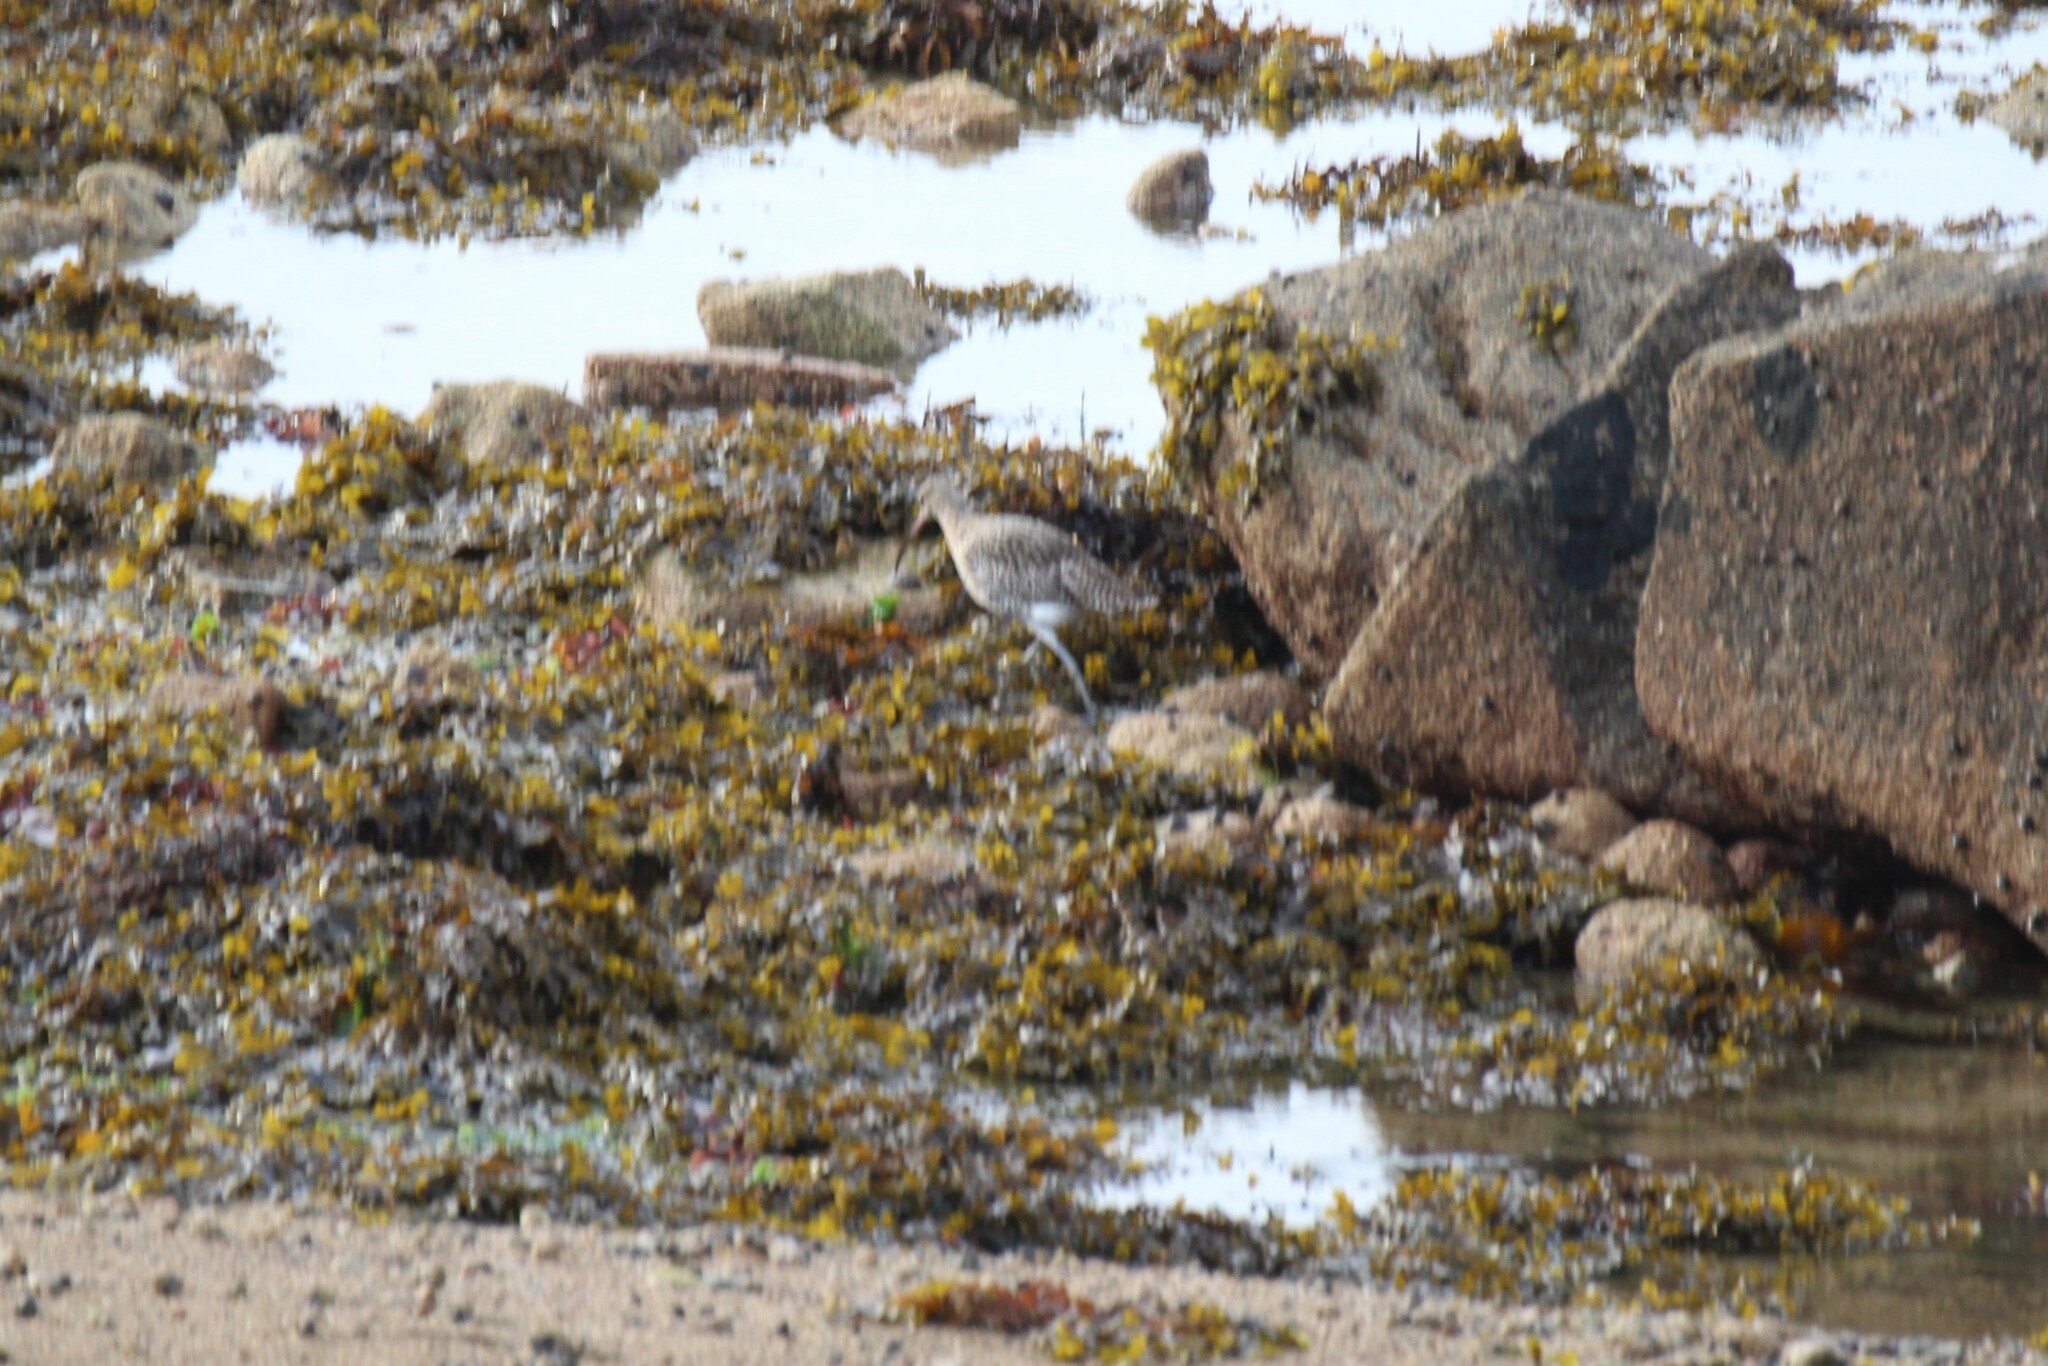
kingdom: Animalia
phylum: Chordata
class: Aves
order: Charadriiformes
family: Scolopacidae
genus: Numenius
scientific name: Numenius arquata
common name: Eurasian curlew
